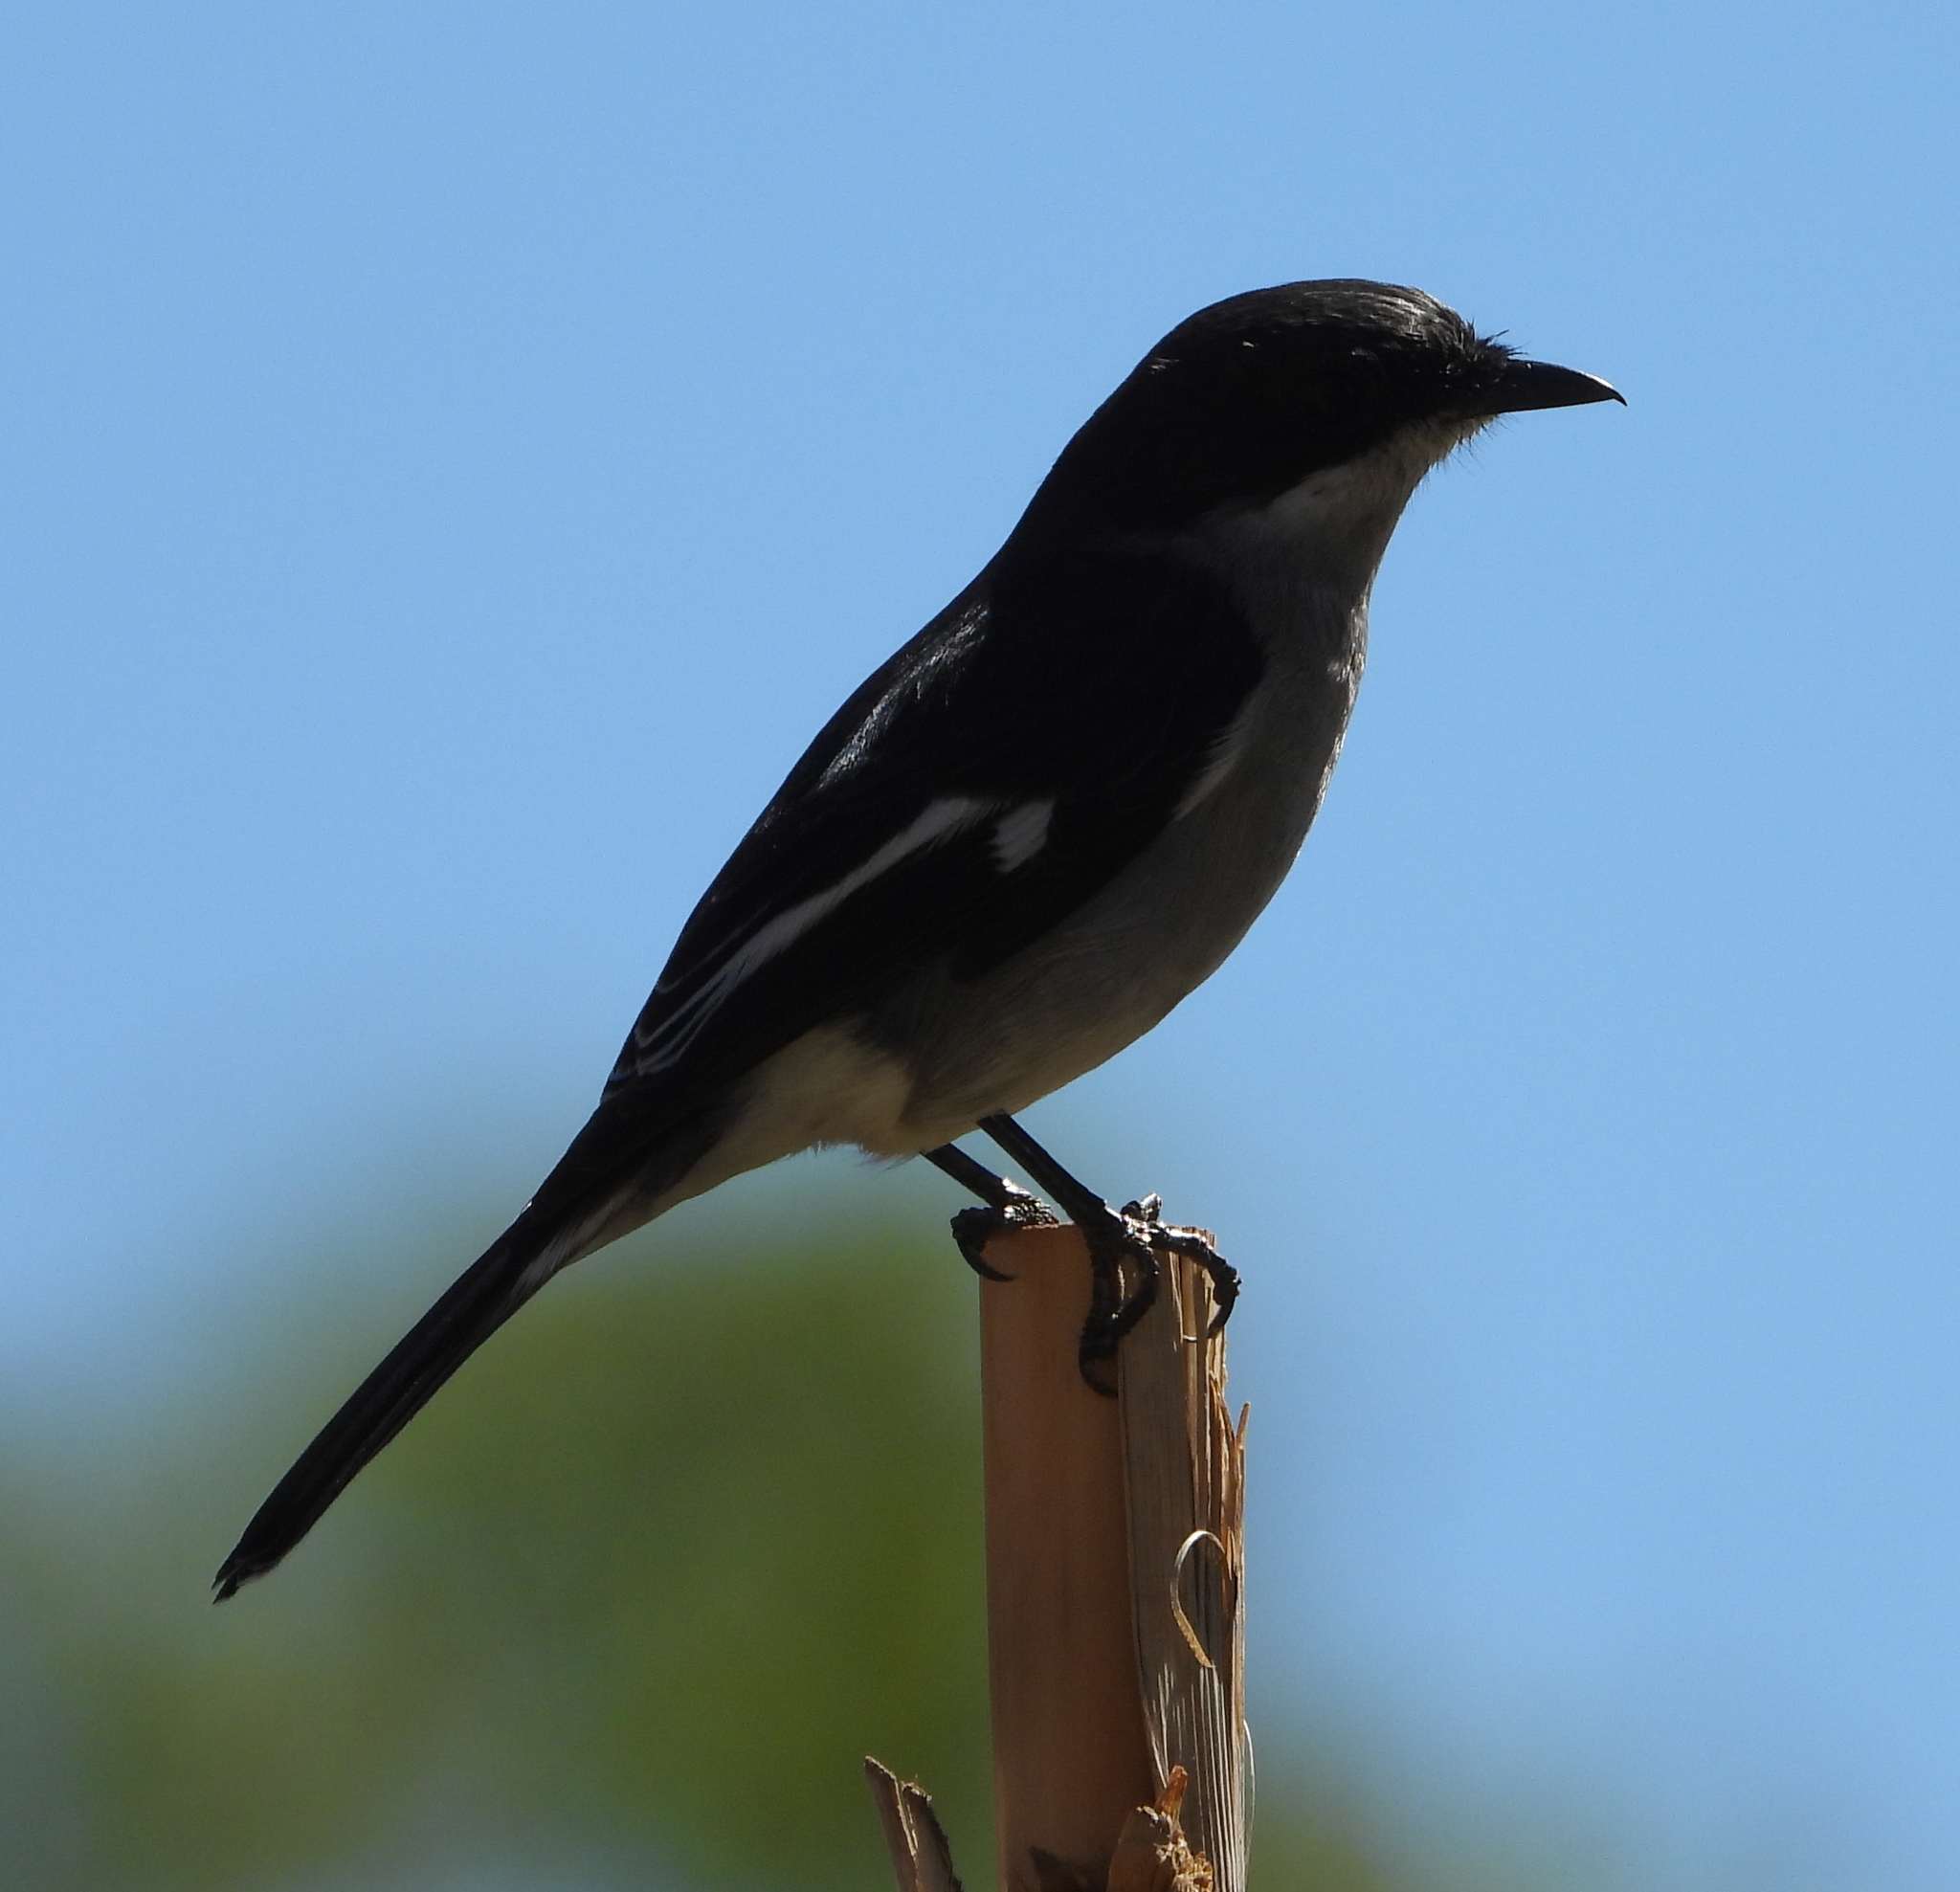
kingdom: Animalia
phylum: Chordata
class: Aves
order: Passeriformes
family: Muscicapidae
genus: Sigelus
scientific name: Sigelus silens
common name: Fiscal flycatcher
